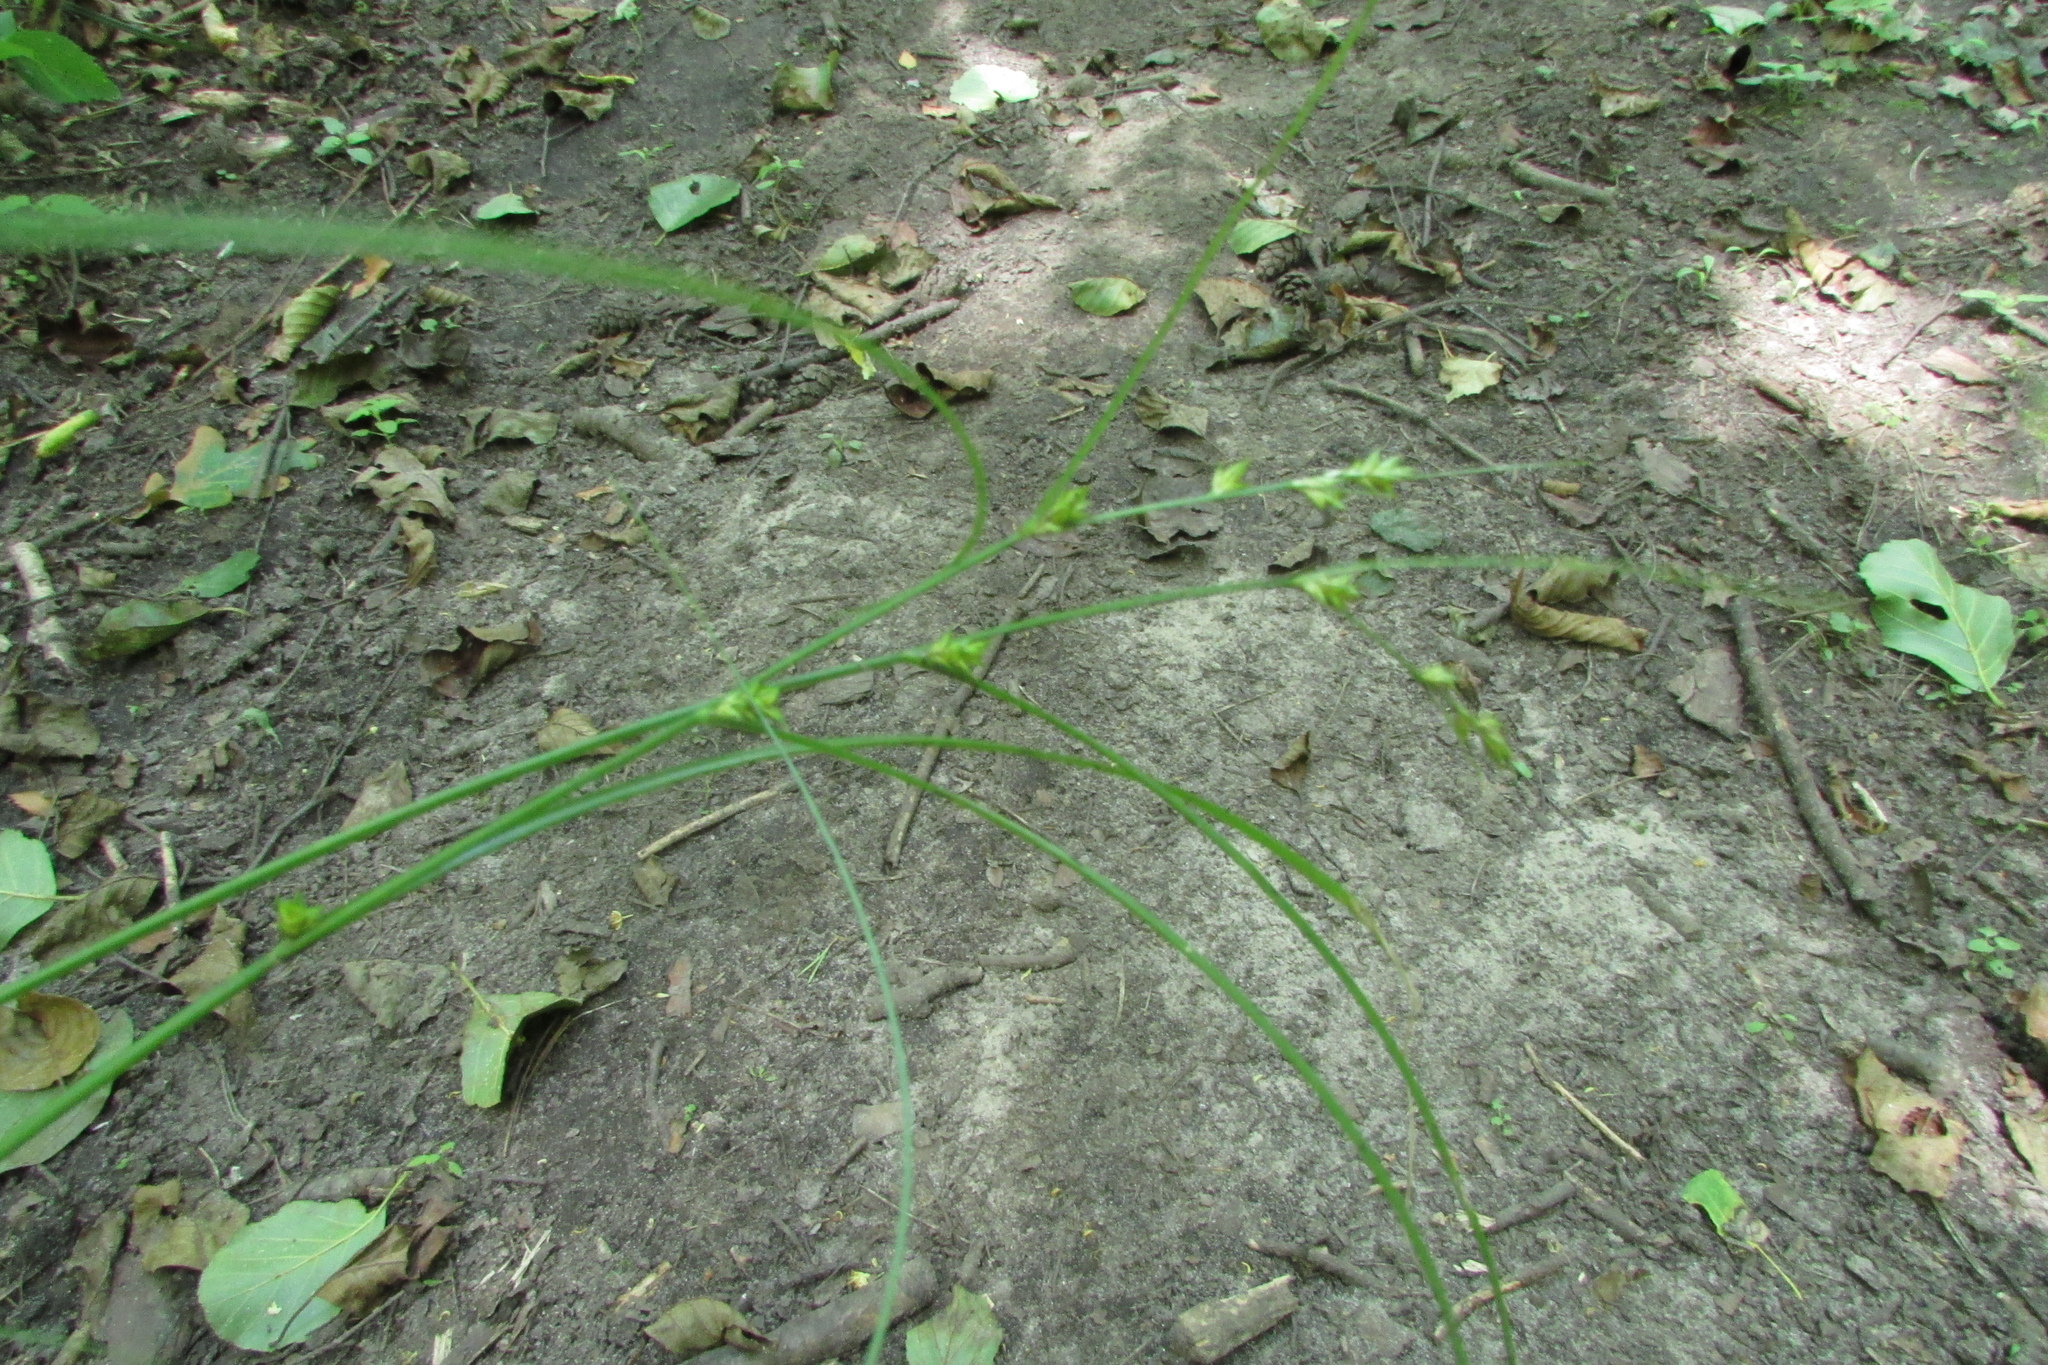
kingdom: Plantae
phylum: Tracheophyta
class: Liliopsida
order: Poales
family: Cyperaceae
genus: Carex
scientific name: Carex remota
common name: Remote sedge
